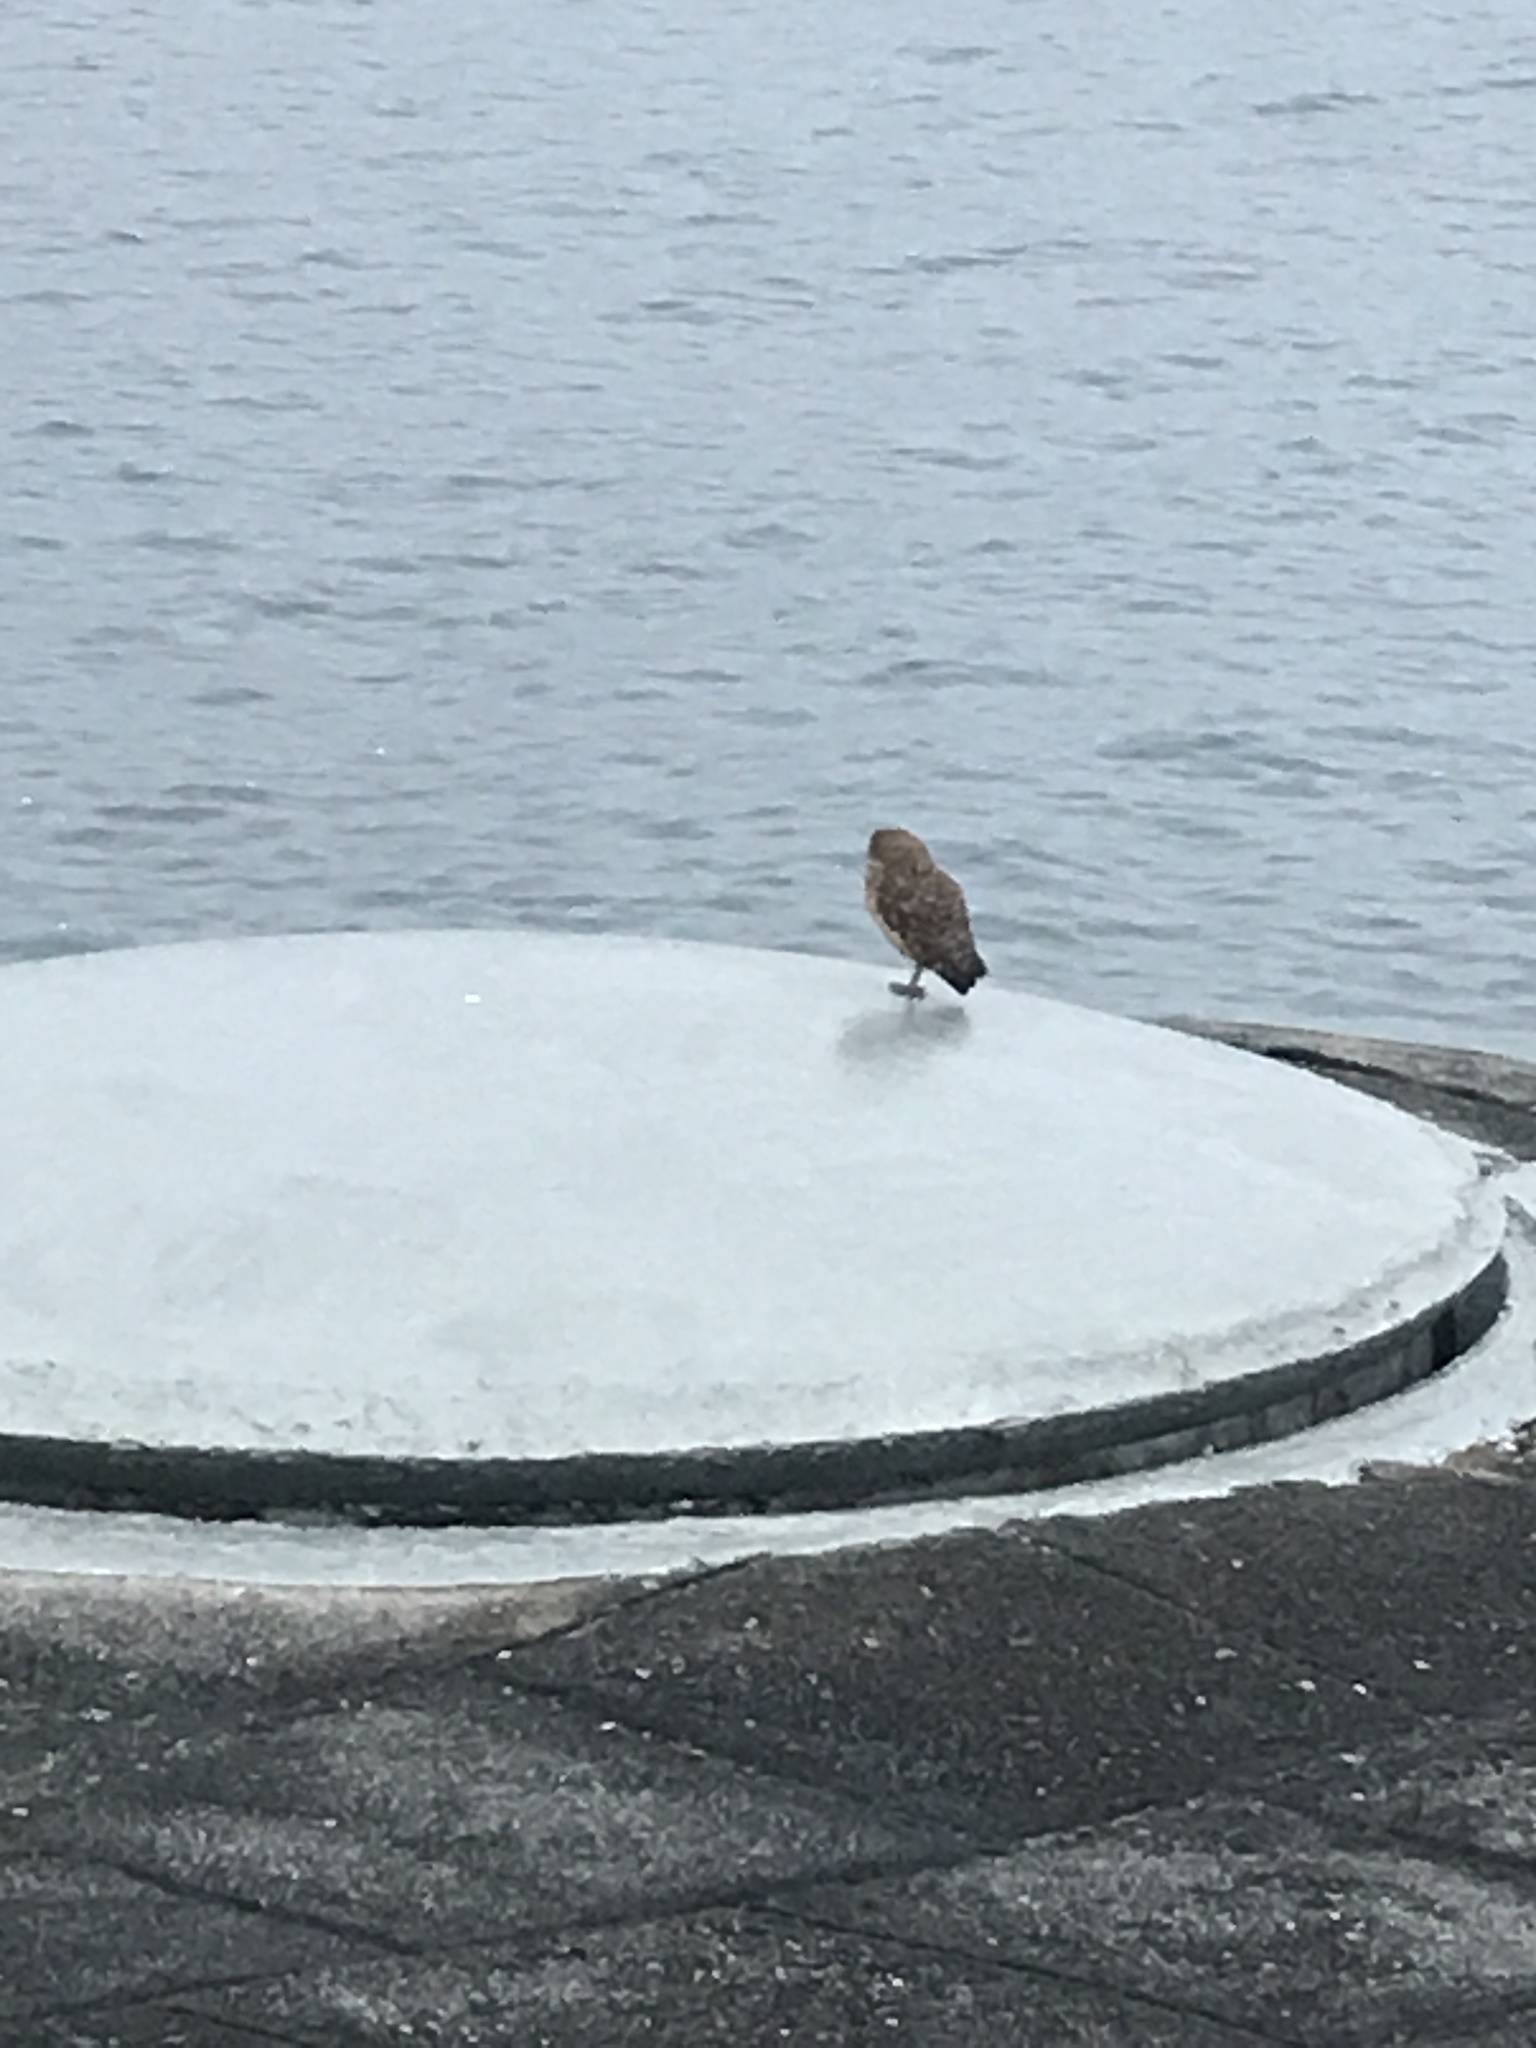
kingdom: Animalia
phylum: Chordata
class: Aves
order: Strigiformes
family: Strigidae
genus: Athene
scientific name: Athene cunicularia
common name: Burrowing owl
